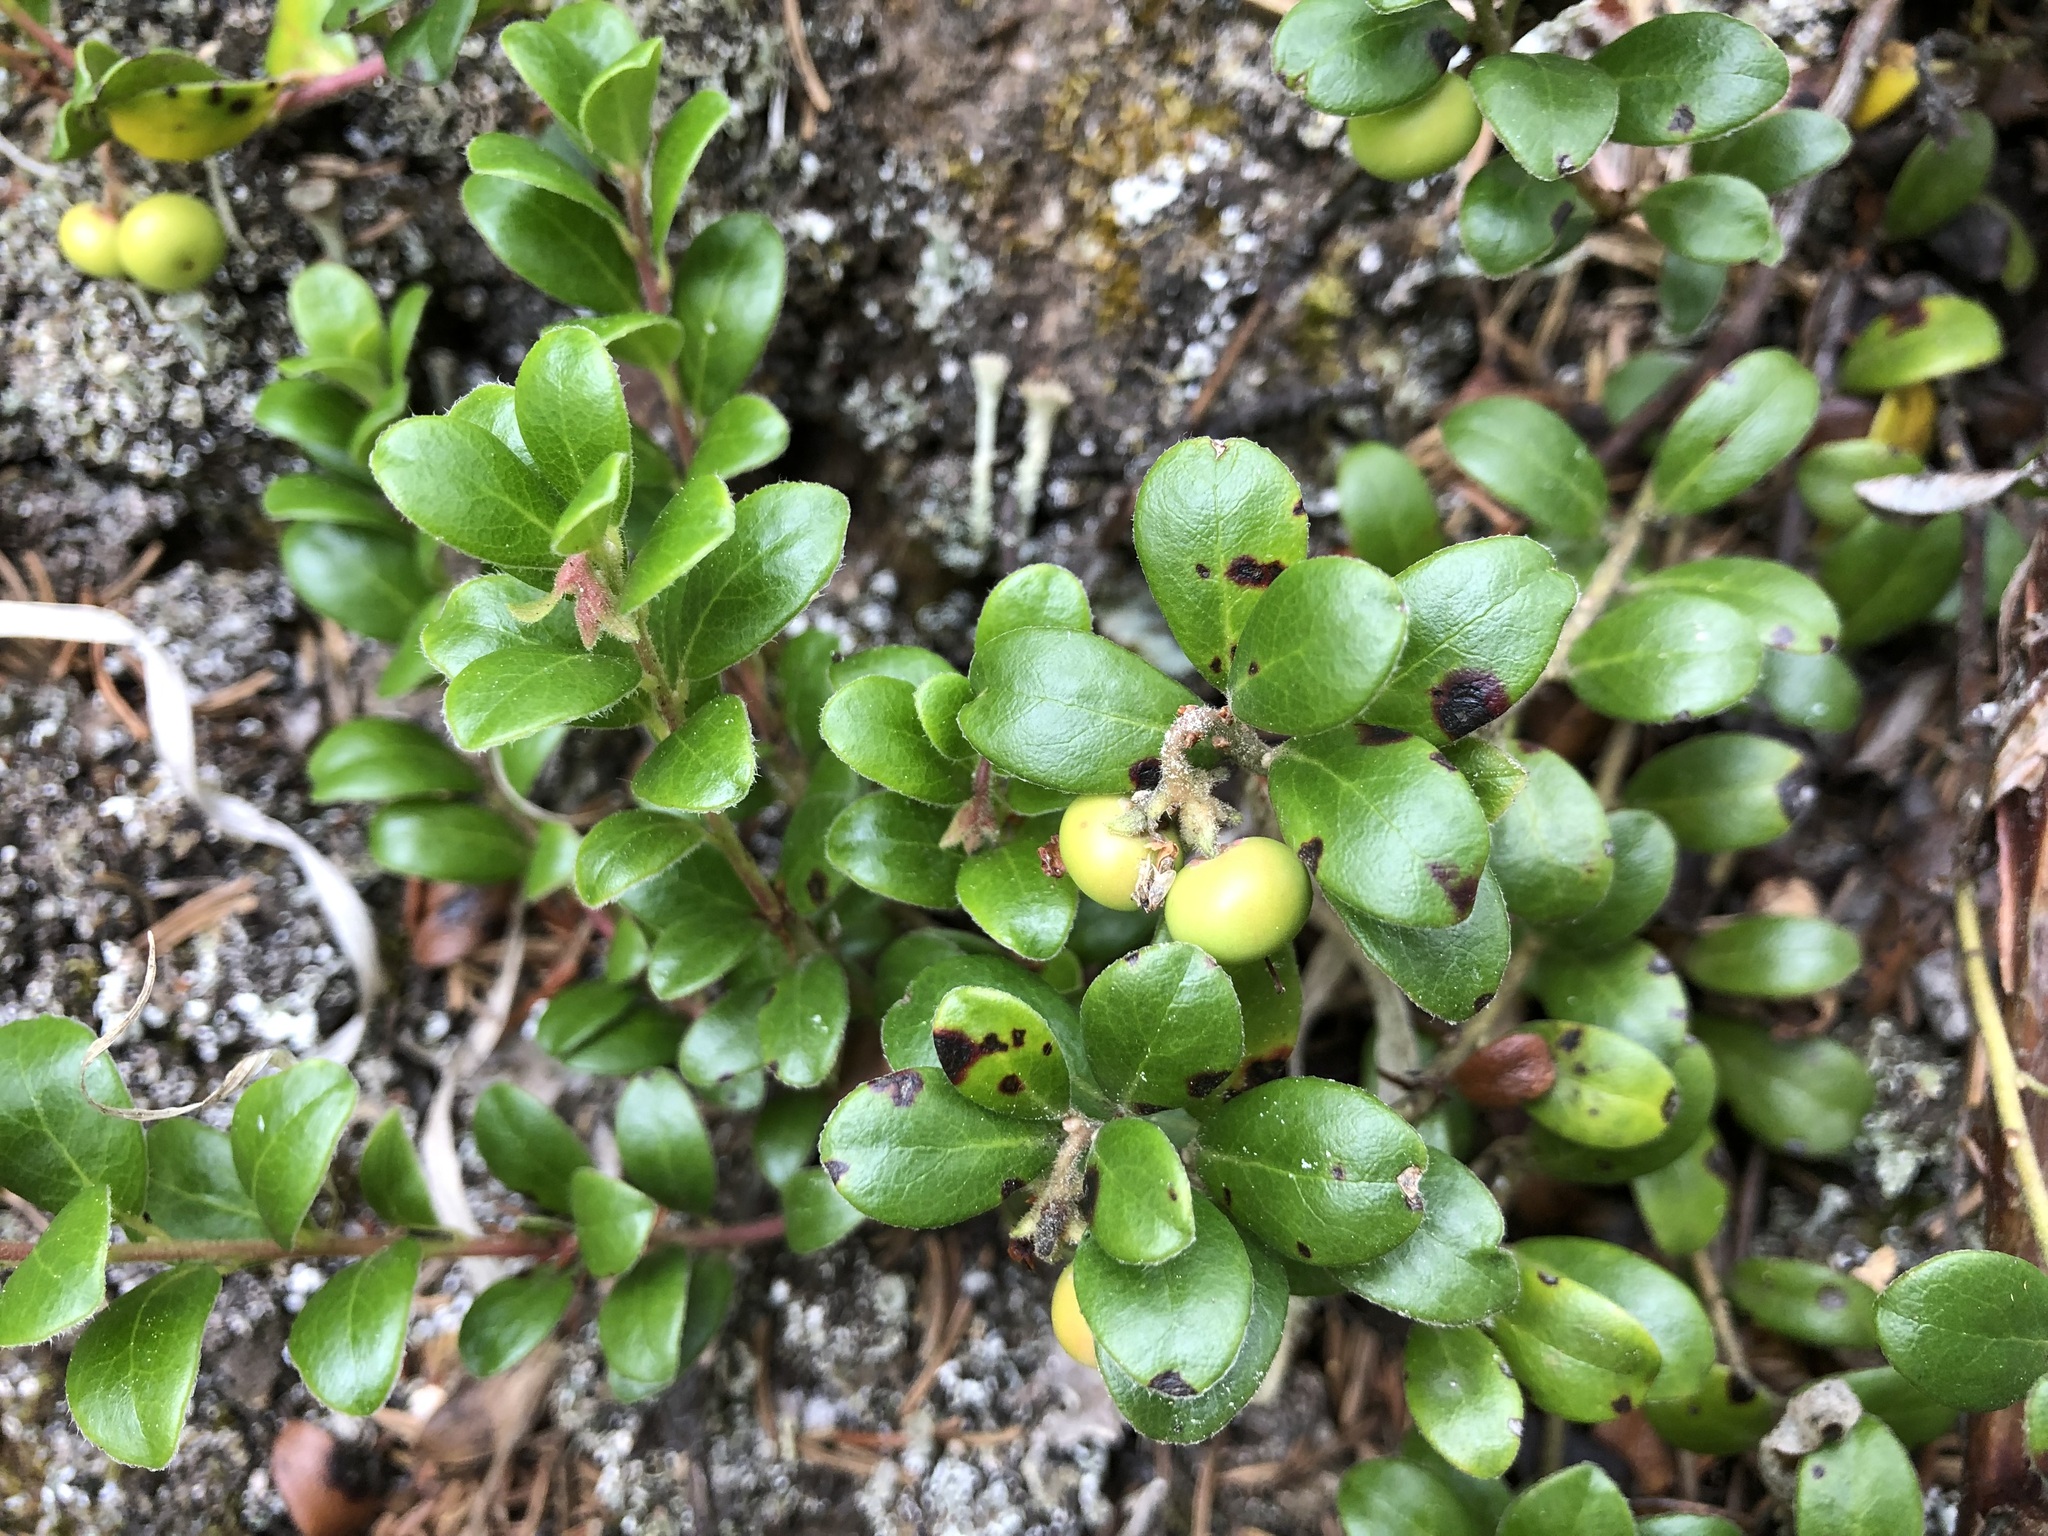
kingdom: Plantae
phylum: Tracheophyta
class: Magnoliopsida
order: Ericales
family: Ericaceae
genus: Arctostaphylos
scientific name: Arctostaphylos uva-ursi
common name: Bearberry
